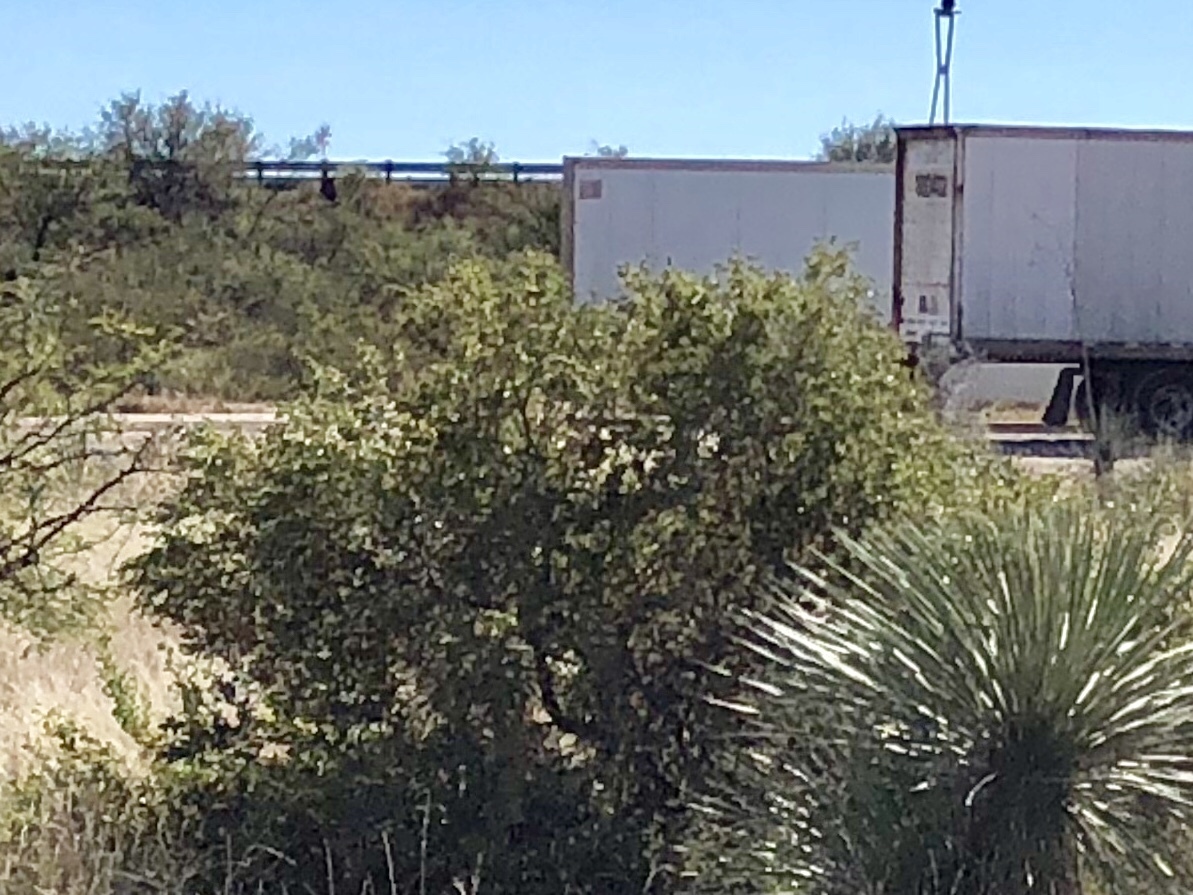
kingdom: Plantae
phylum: Tracheophyta
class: Magnoliopsida
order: Caryophyllales
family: Amaranthaceae
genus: Atriplex
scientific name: Atriplex canescens
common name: Four-wing saltbush
